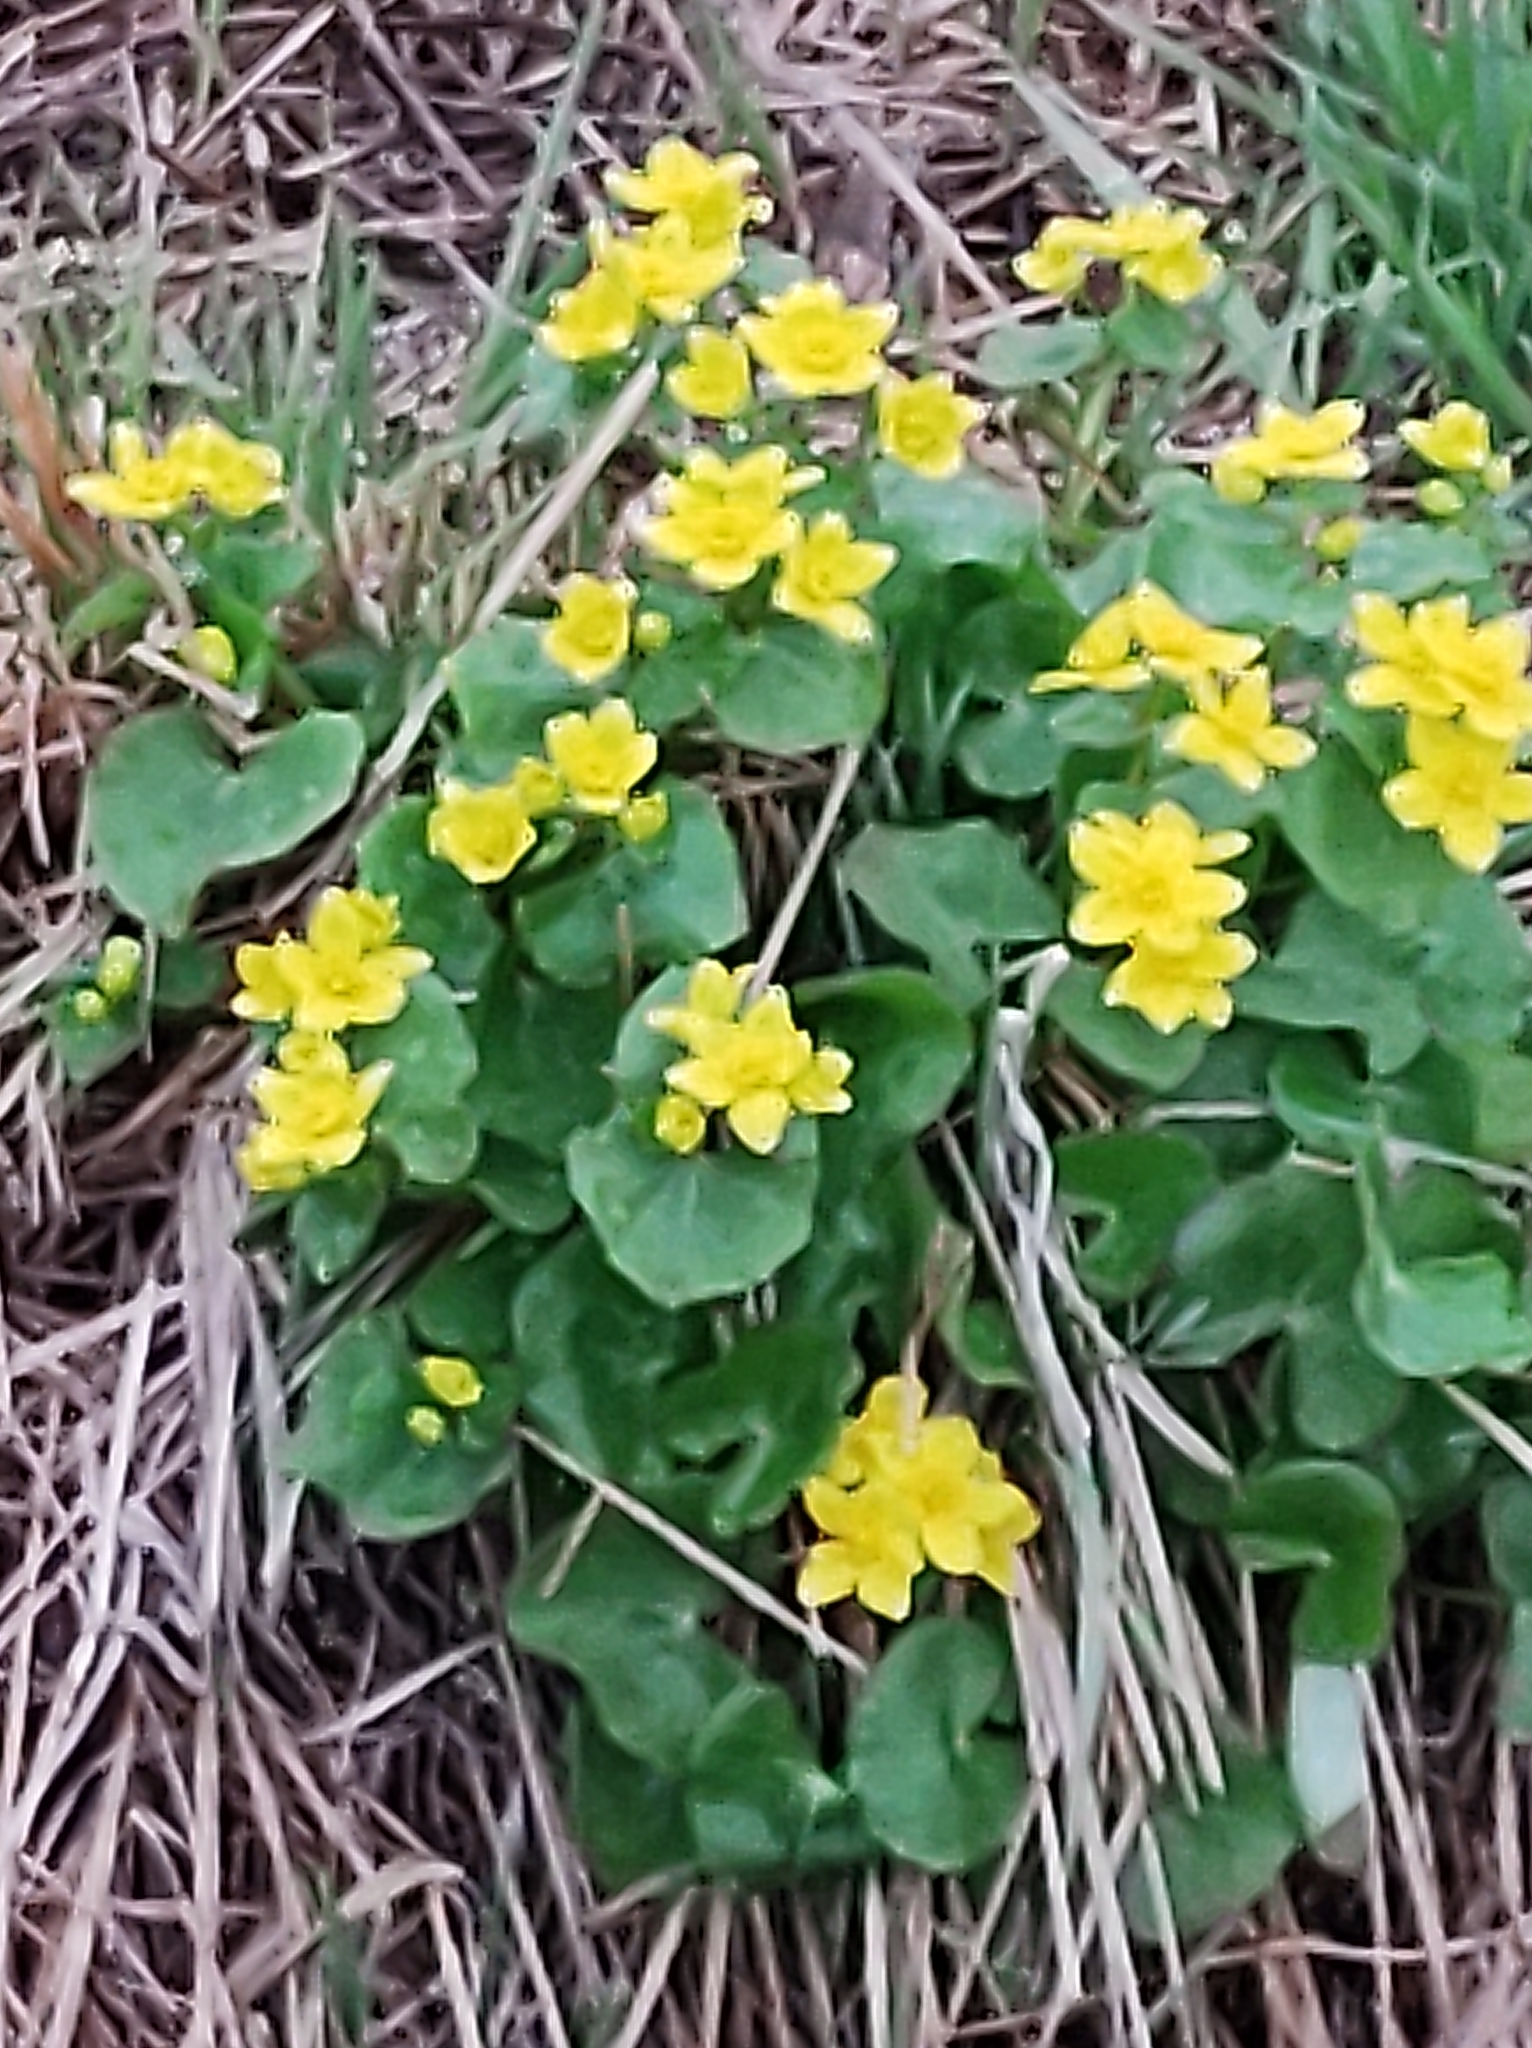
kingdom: Plantae
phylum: Tracheophyta
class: Magnoliopsida
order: Ranunculales
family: Ranunculaceae
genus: Caltha
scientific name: Caltha palustris
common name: Marsh marigold
